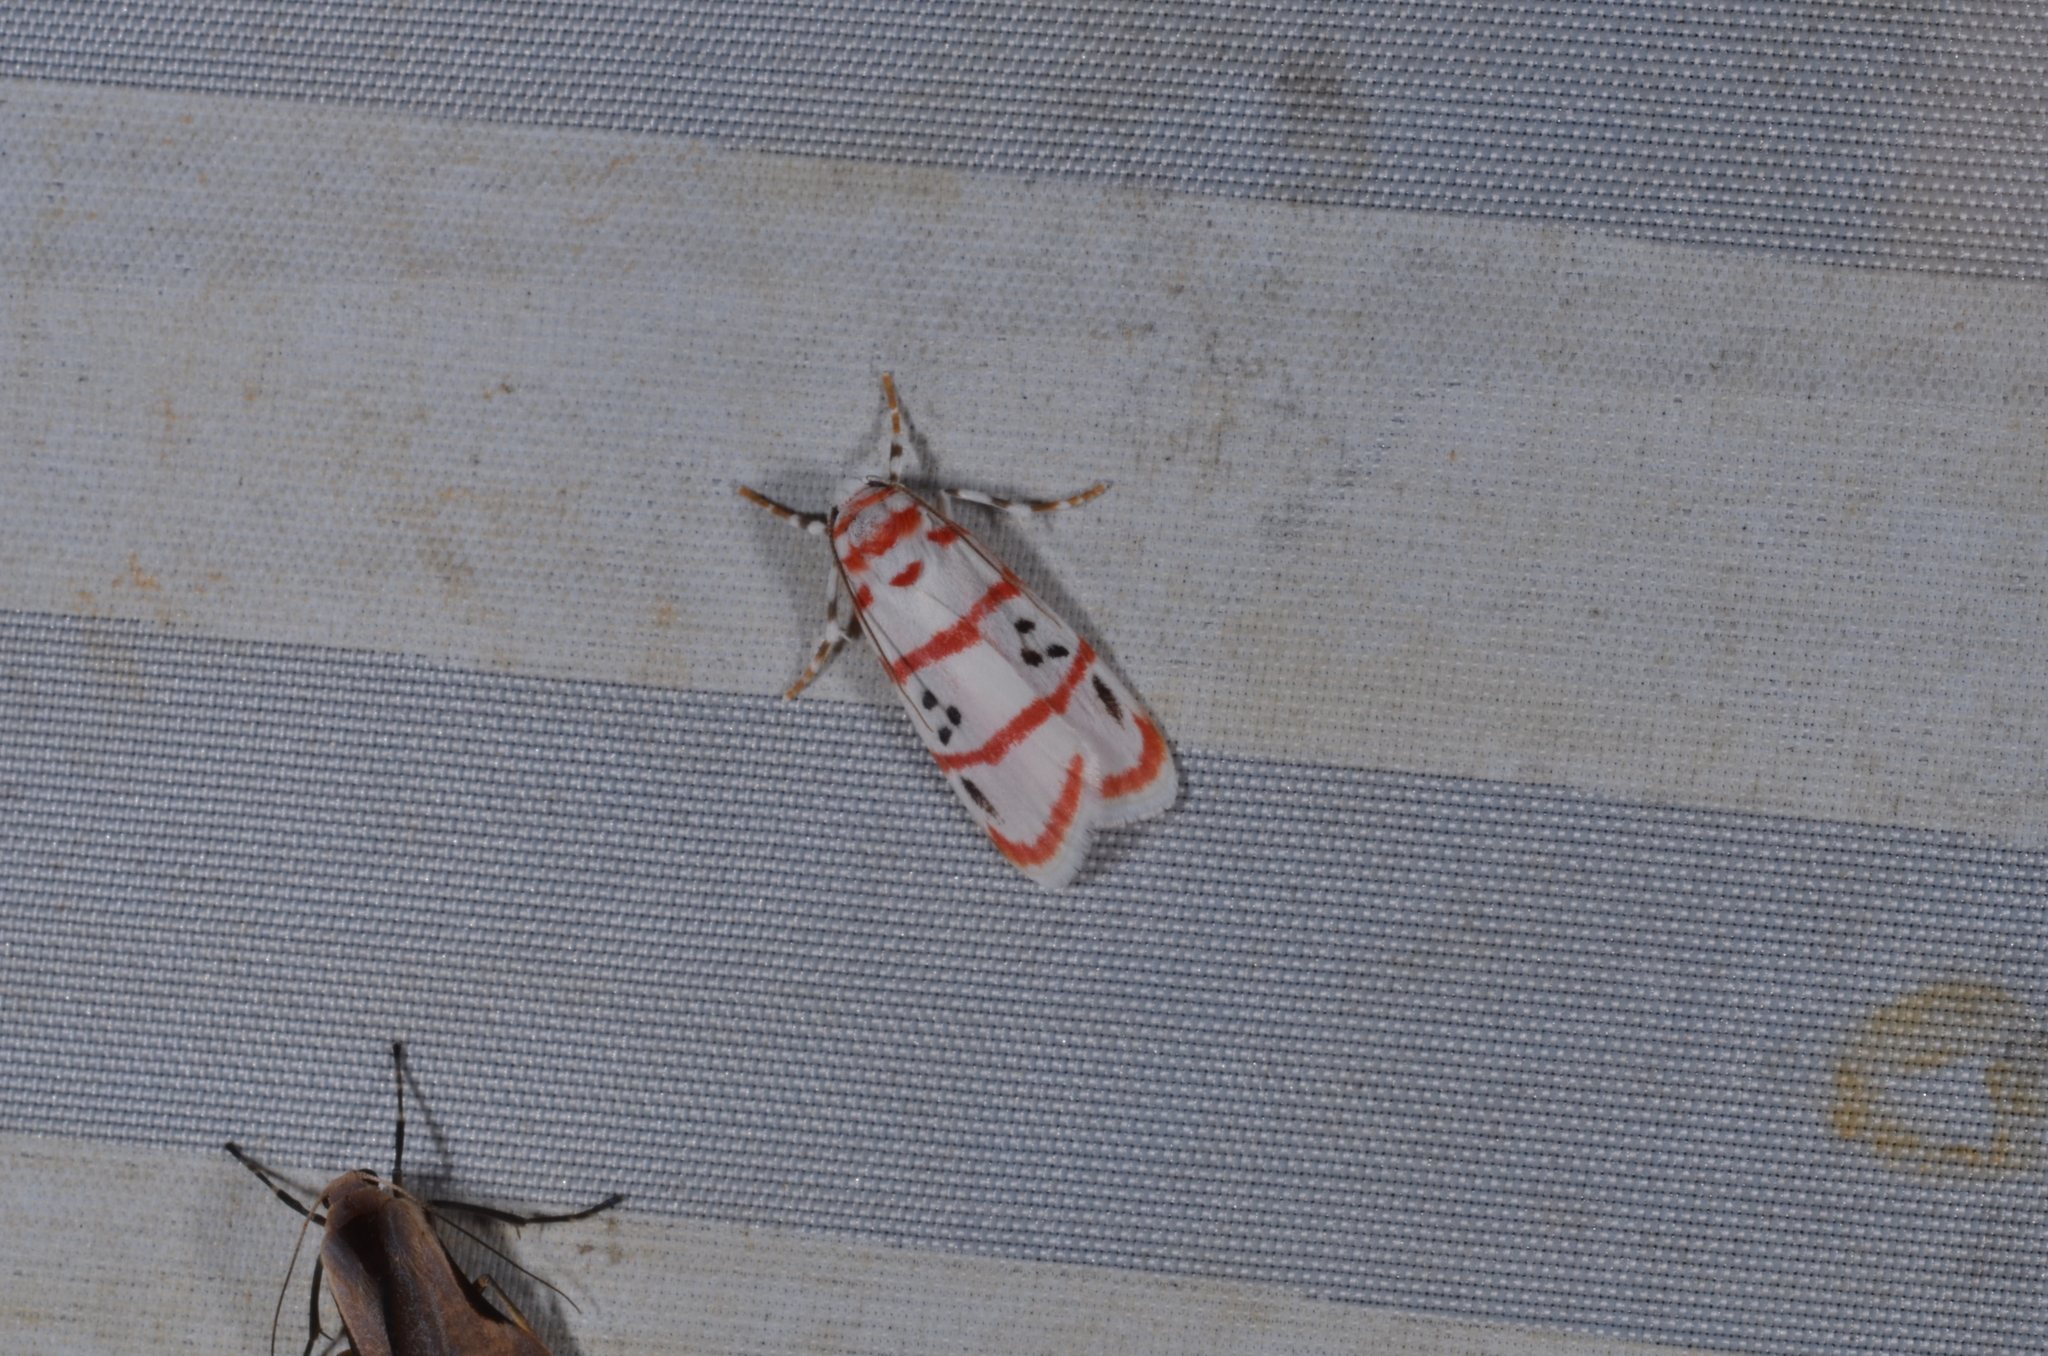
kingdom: Animalia
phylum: Arthropoda
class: Insecta
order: Lepidoptera
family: Erebidae
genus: Cyana
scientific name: Cyana dudgeoni
